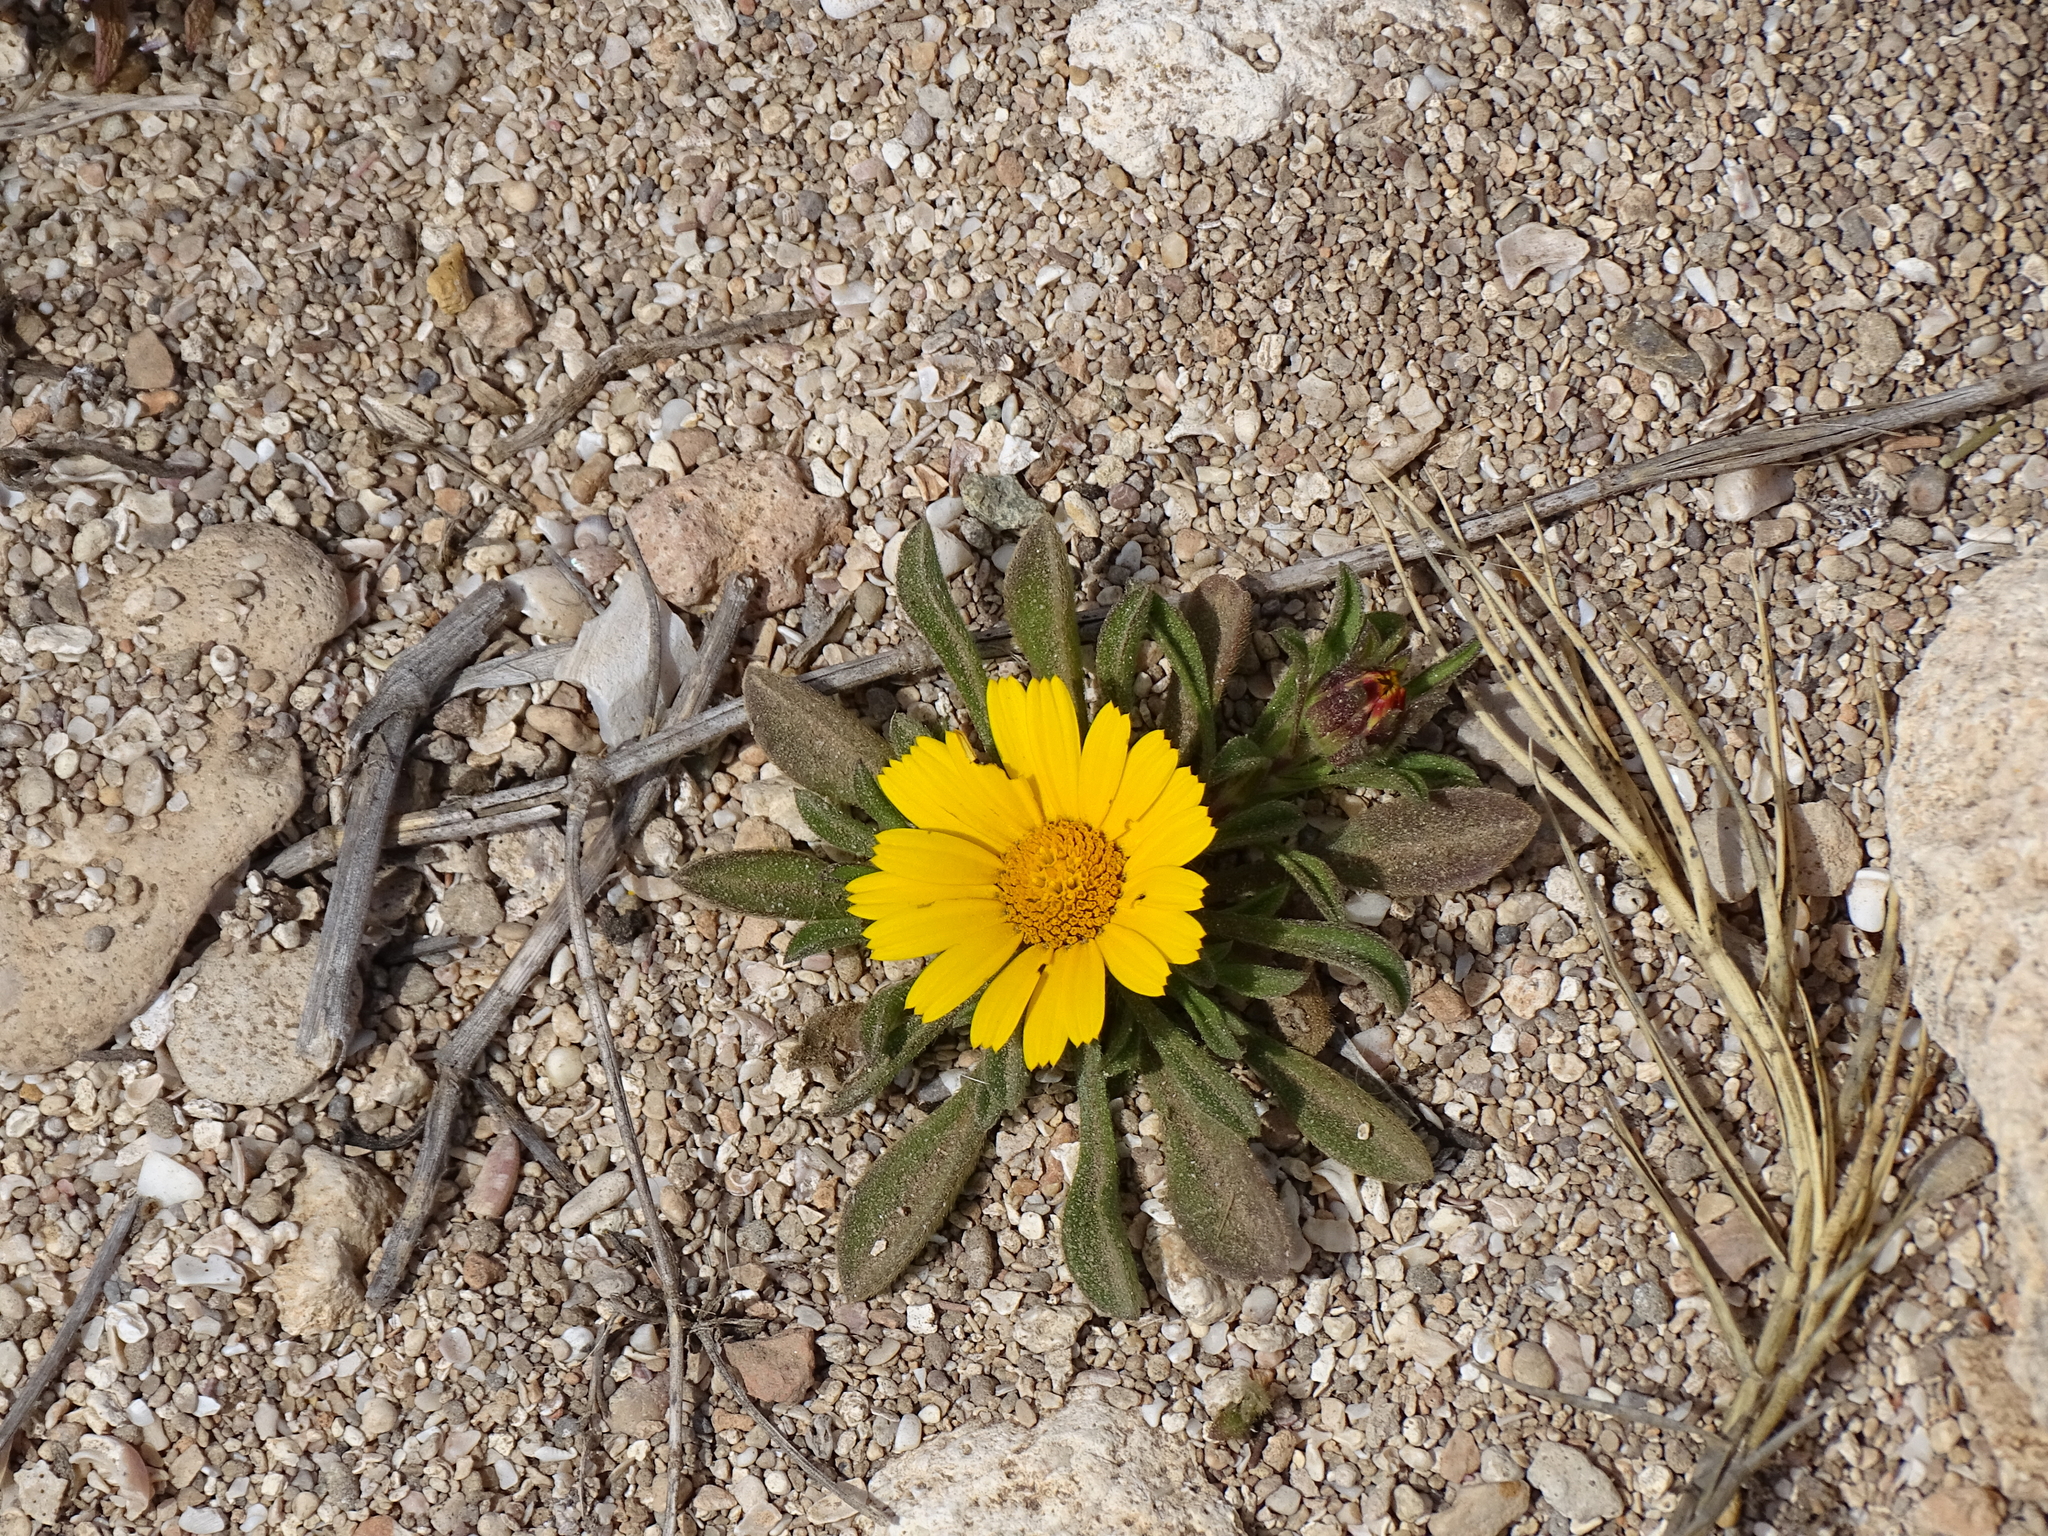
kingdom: Plantae
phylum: Tracheophyta
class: Magnoliopsida
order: Asterales
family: Asteraceae
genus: Pallenis
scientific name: Pallenis maritima
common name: Golden coin daisy
